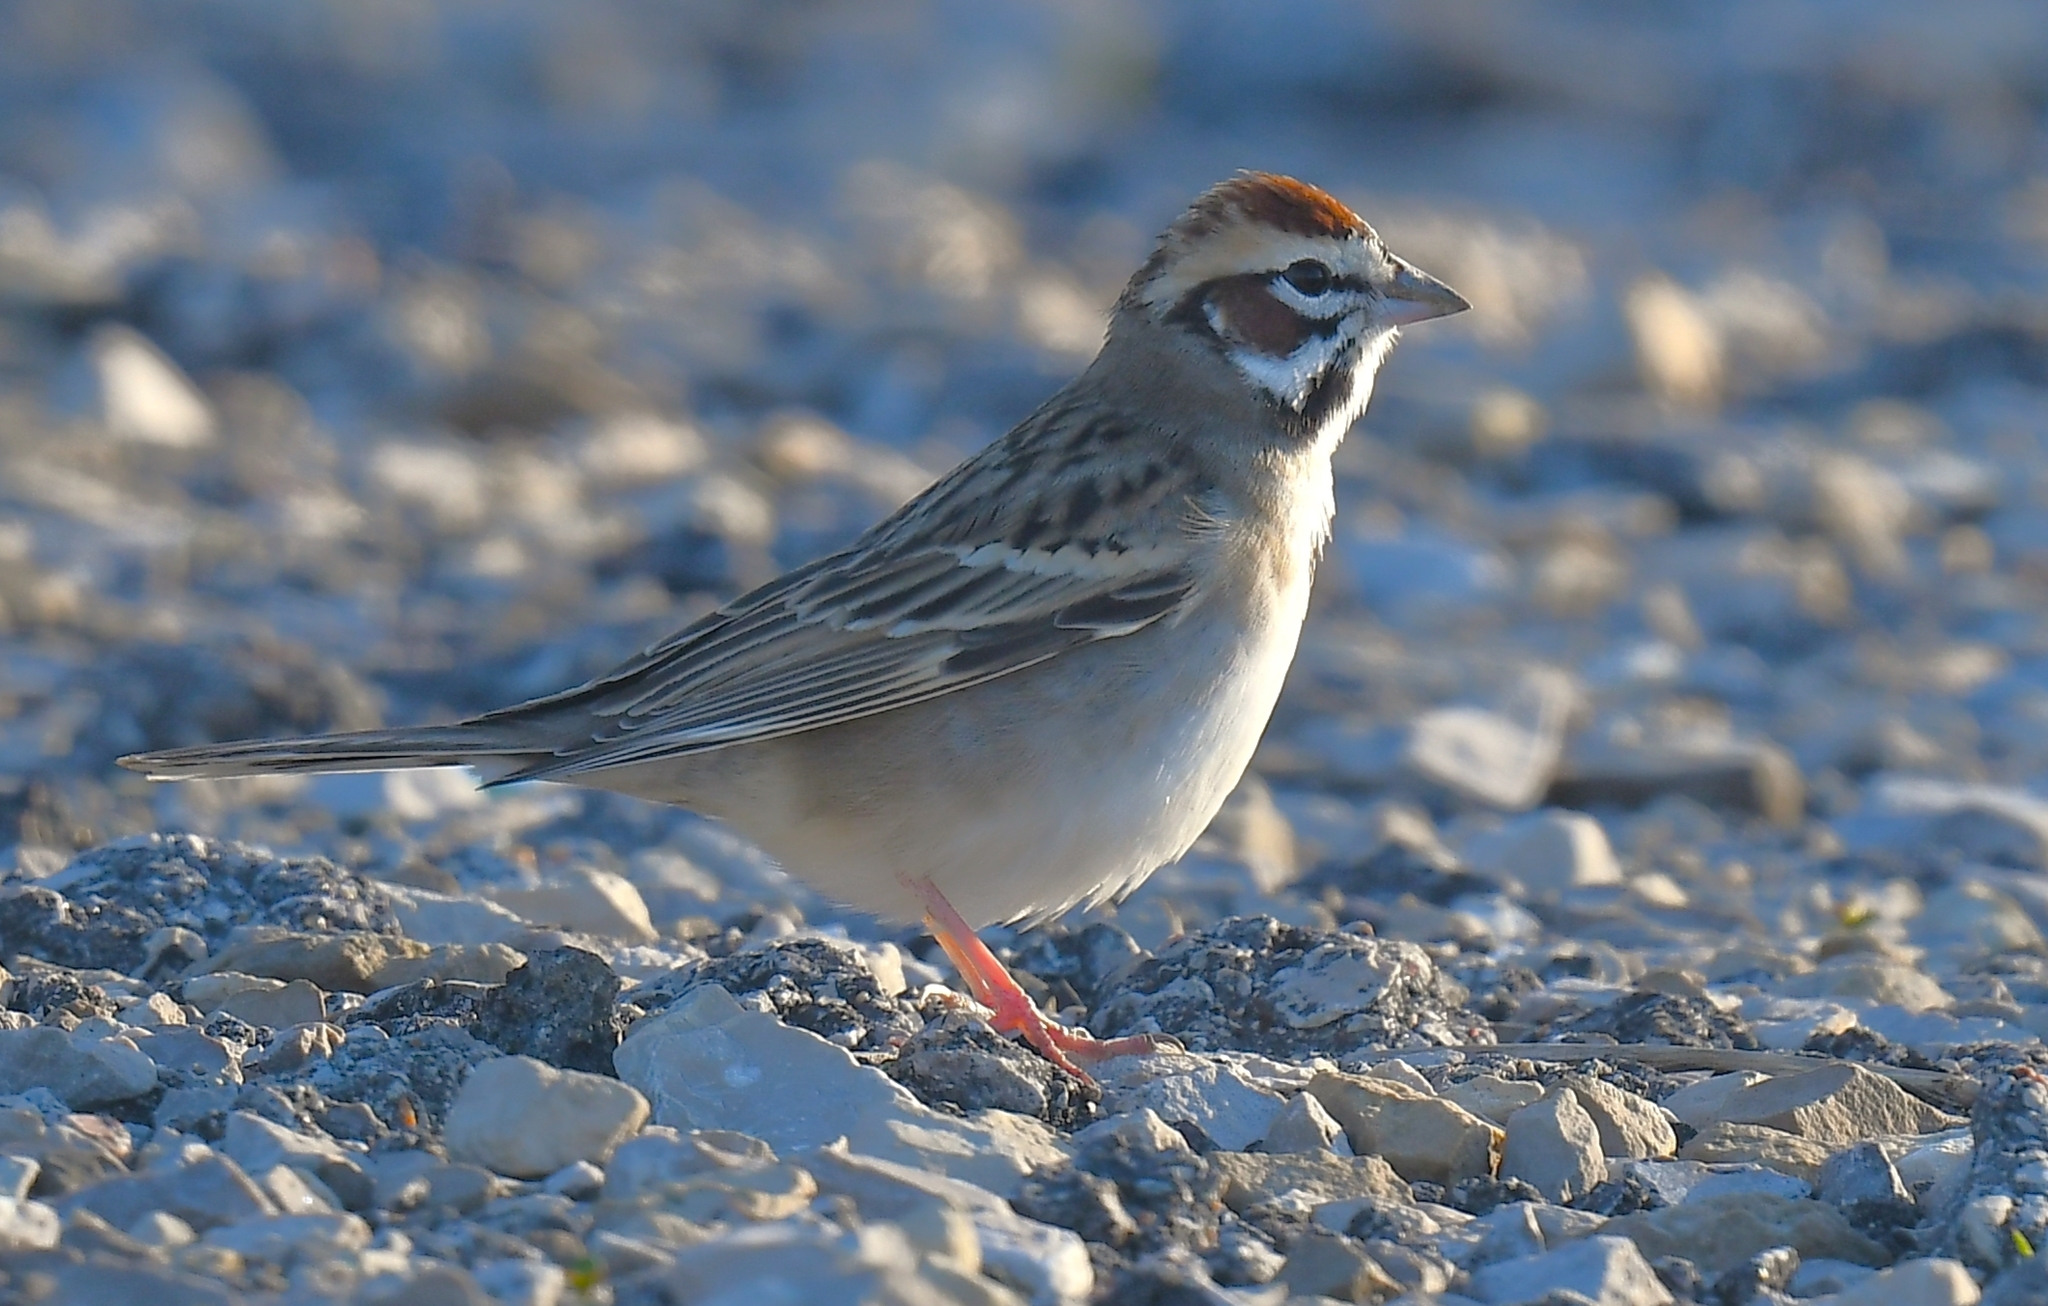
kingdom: Animalia
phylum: Chordata
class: Aves
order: Passeriformes
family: Passerellidae
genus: Chondestes
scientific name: Chondestes grammacus
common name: Lark sparrow
